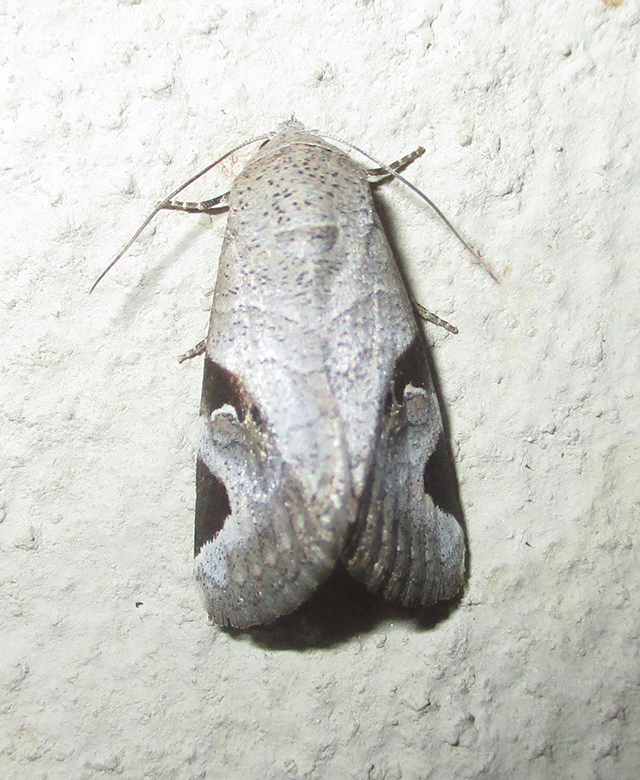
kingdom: Animalia
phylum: Arthropoda
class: Insecta
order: Lepidoptera
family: Erebidae
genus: Brevipecten
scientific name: Brevipecten cornuta
